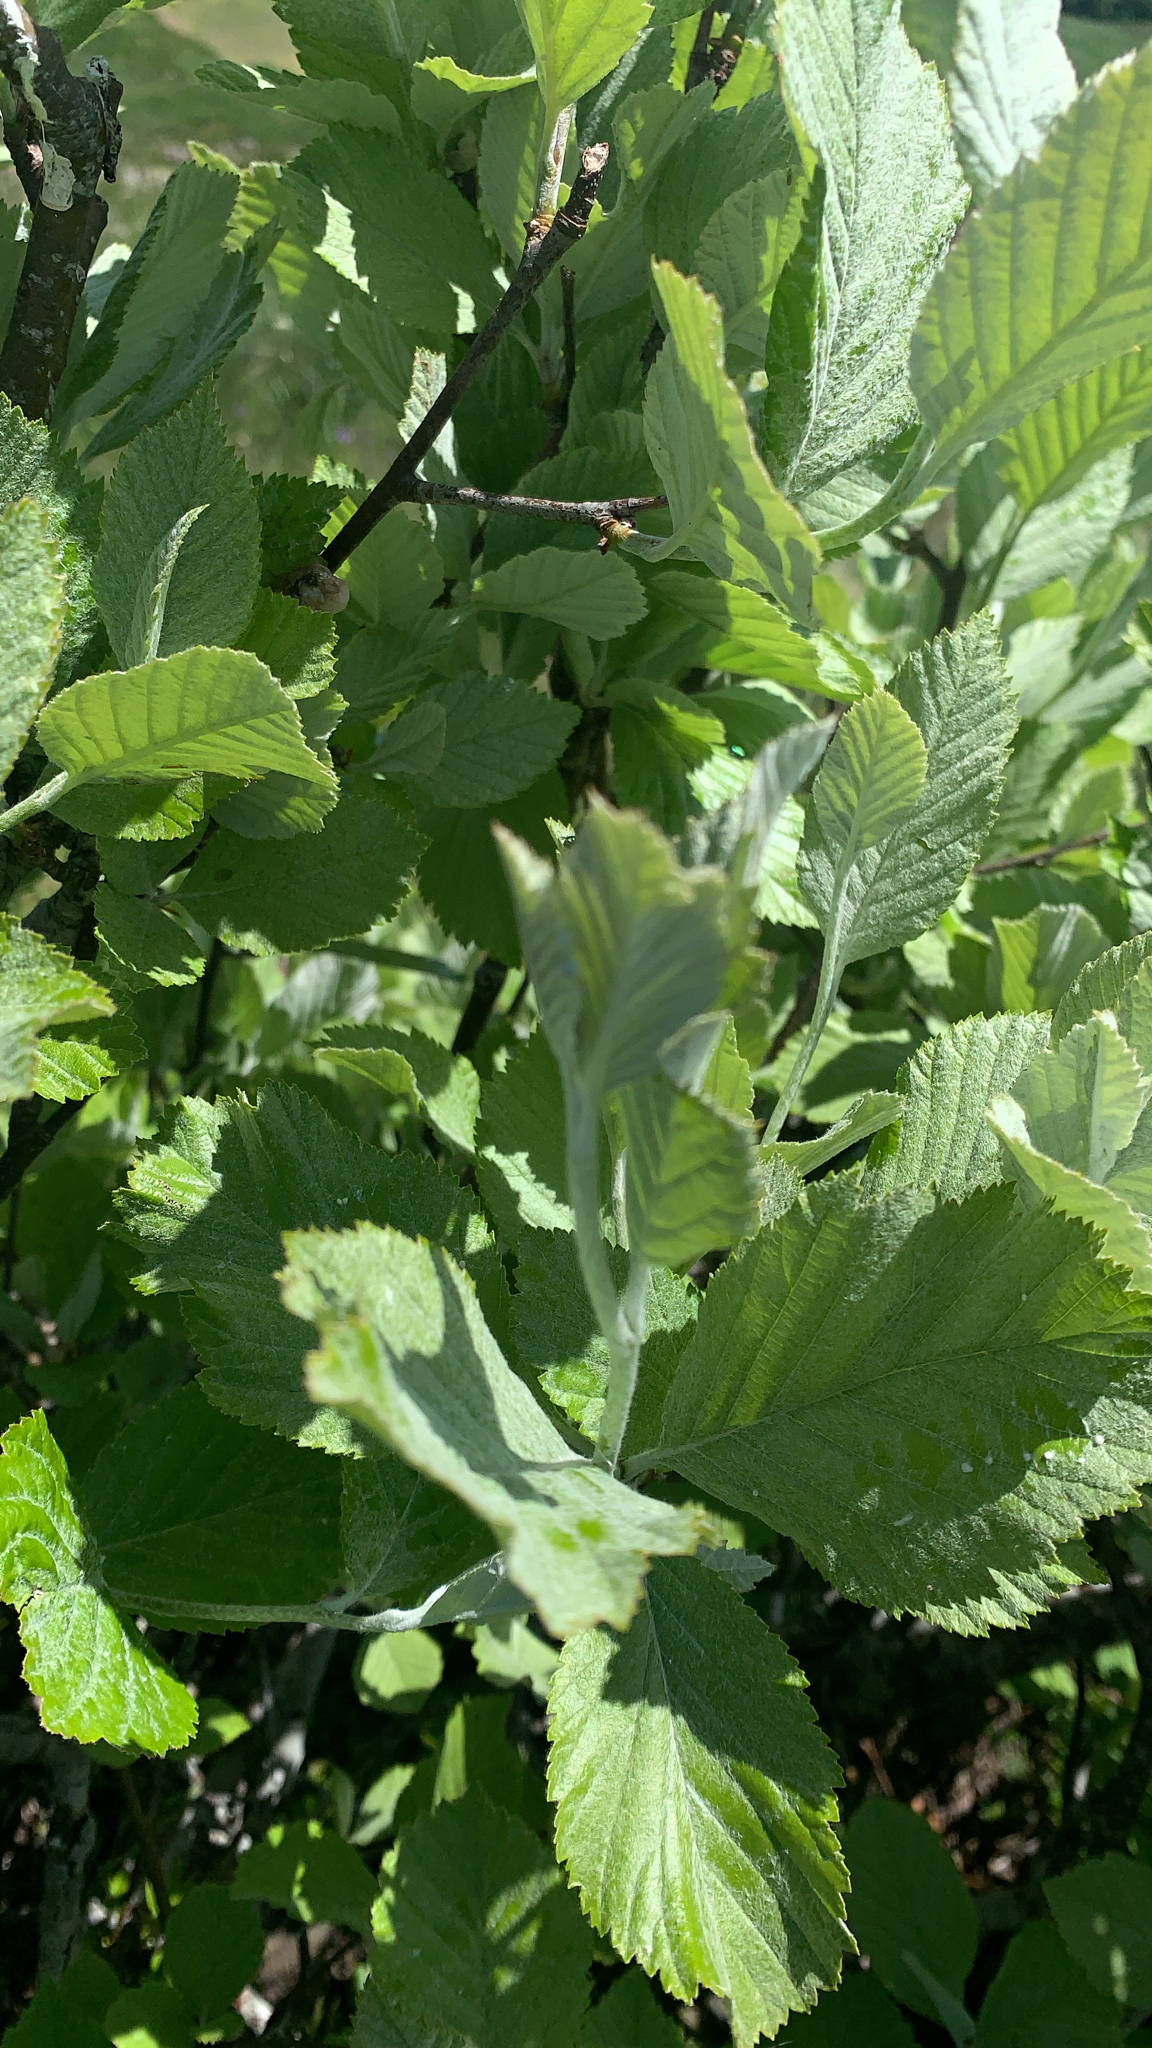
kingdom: Plantae
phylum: Tracheophyta
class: Magnoliopsida
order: Rosales
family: Rosaceae
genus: Aria
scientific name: Aria edulis
